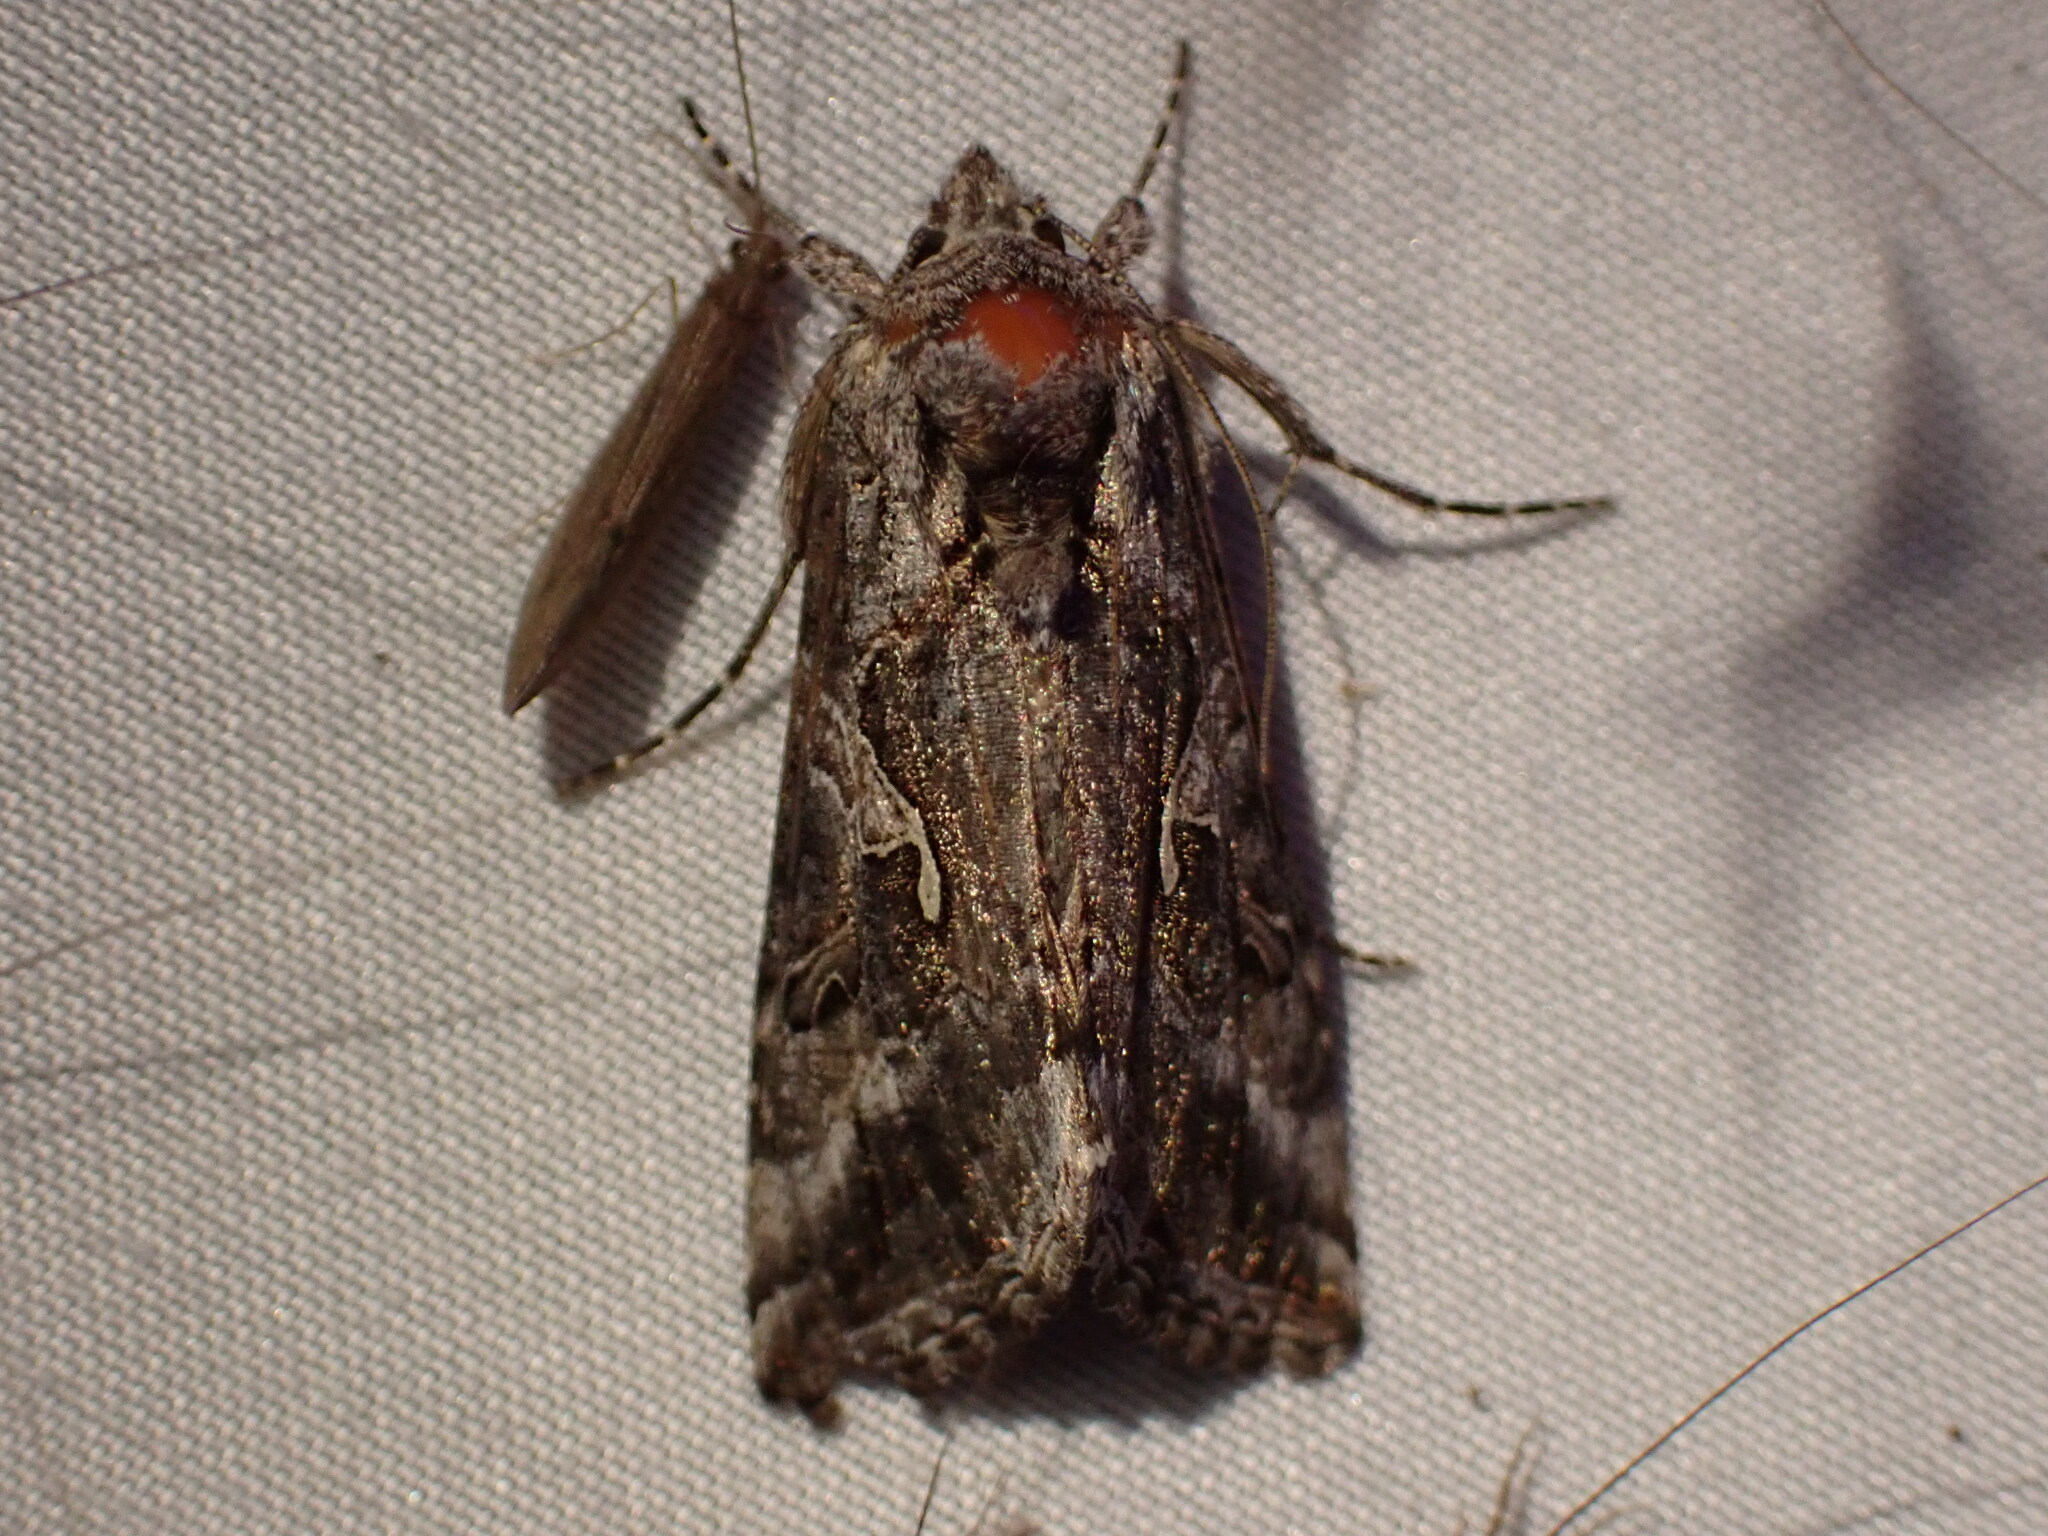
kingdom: Animalia
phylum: Arthropoda
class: Insecta
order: Lepidoptera
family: Noctuidae
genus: Autographa
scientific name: Autographa californica
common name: Alfalfa looper
